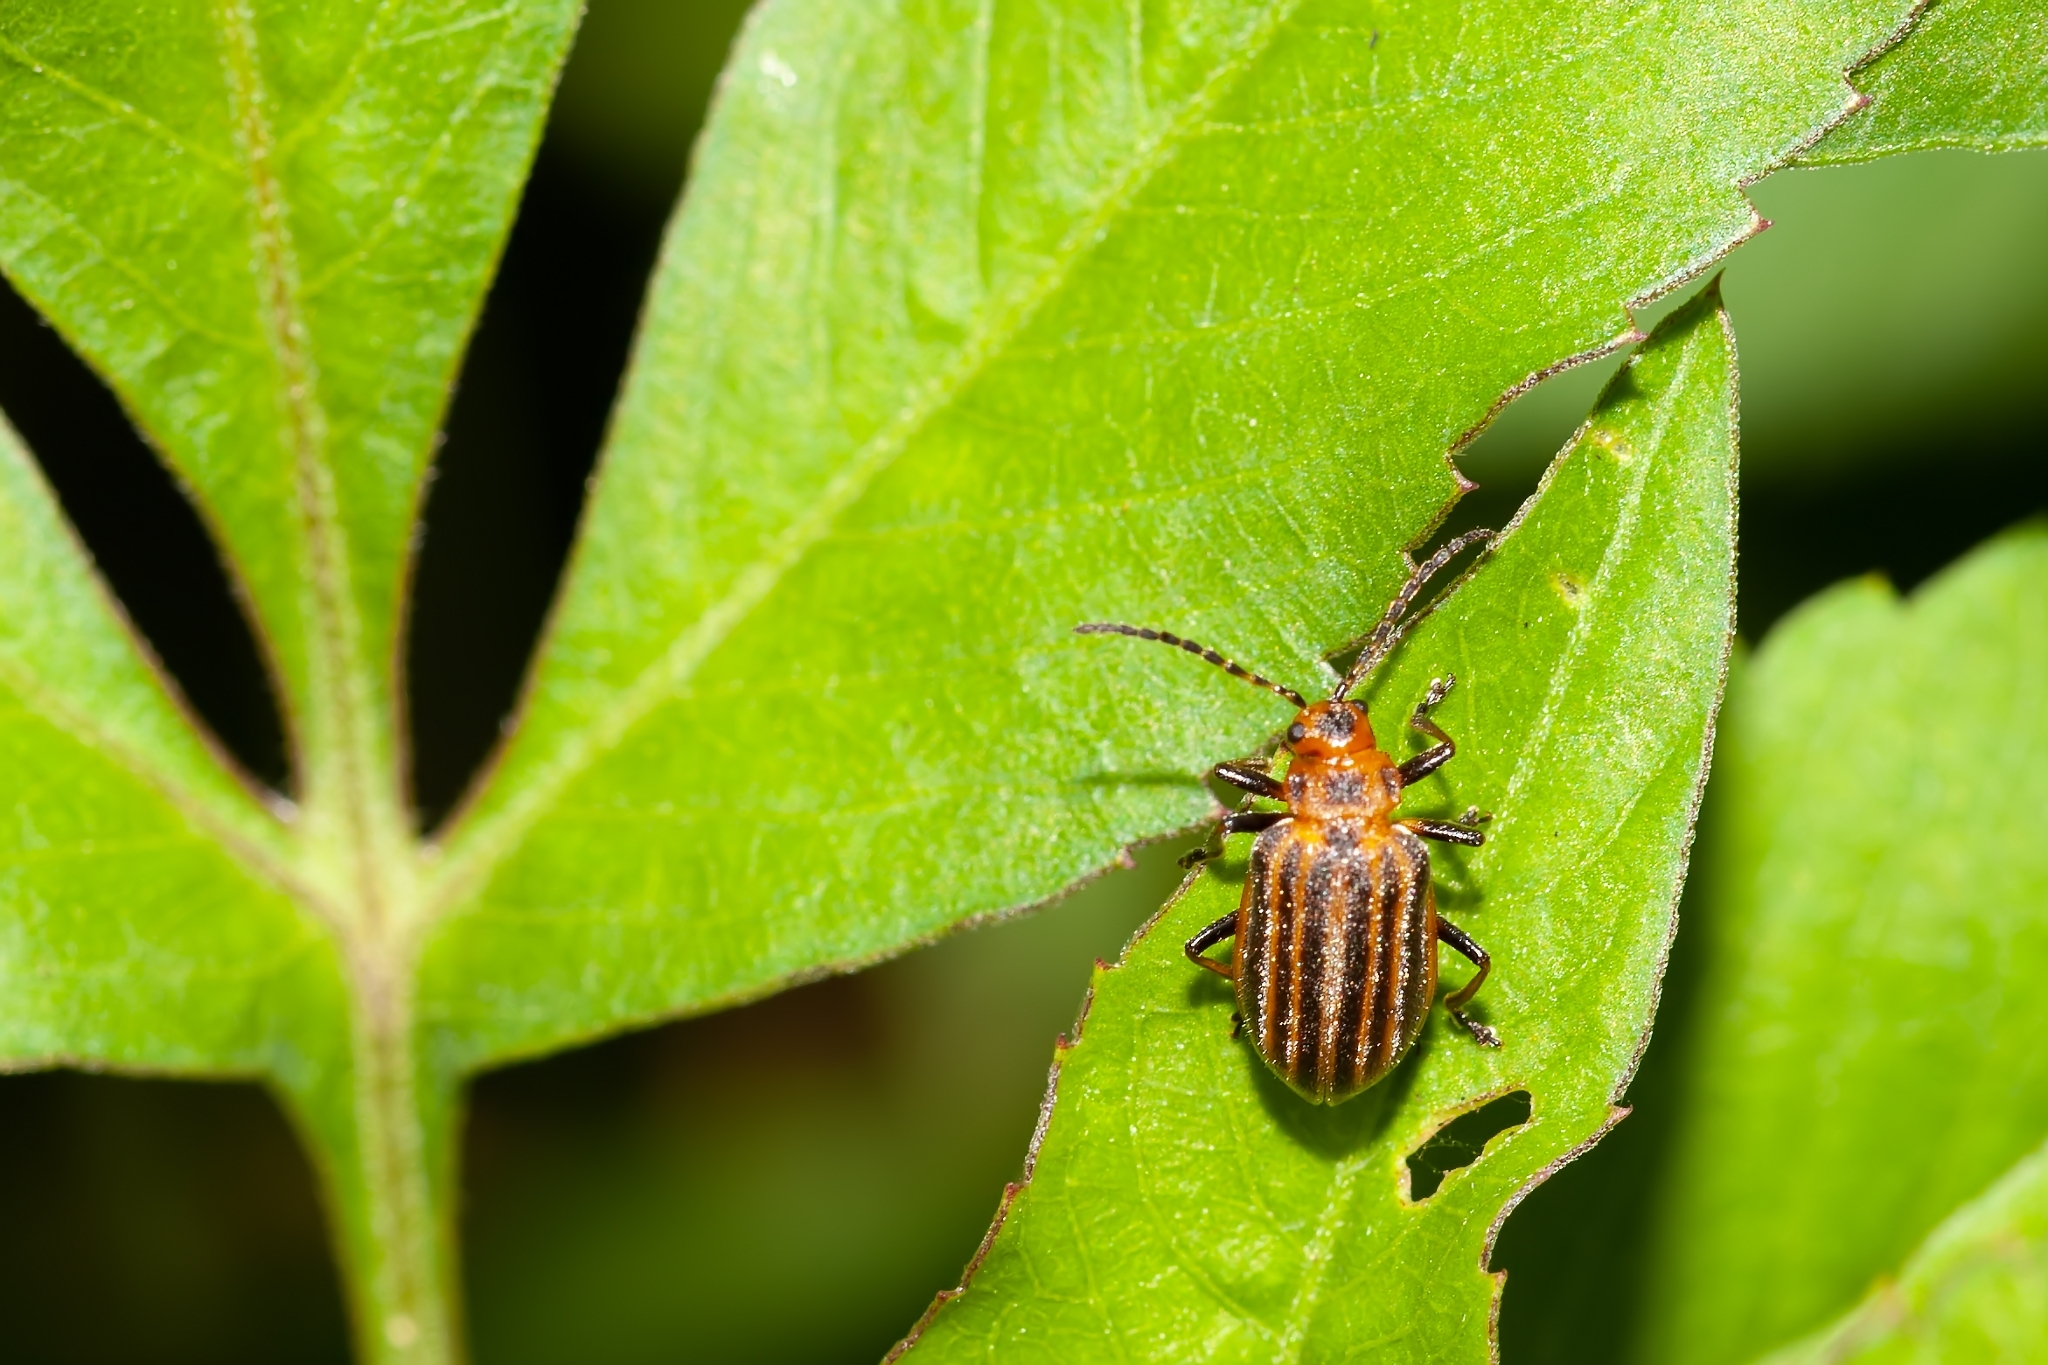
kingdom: Animalia
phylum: Arthropoda
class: Insecta
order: Coleoptera
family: Chrysomelidae
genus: Neolochmaea
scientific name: Neolochmaea dilatipennis
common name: Skeletonizing leaf beetle
